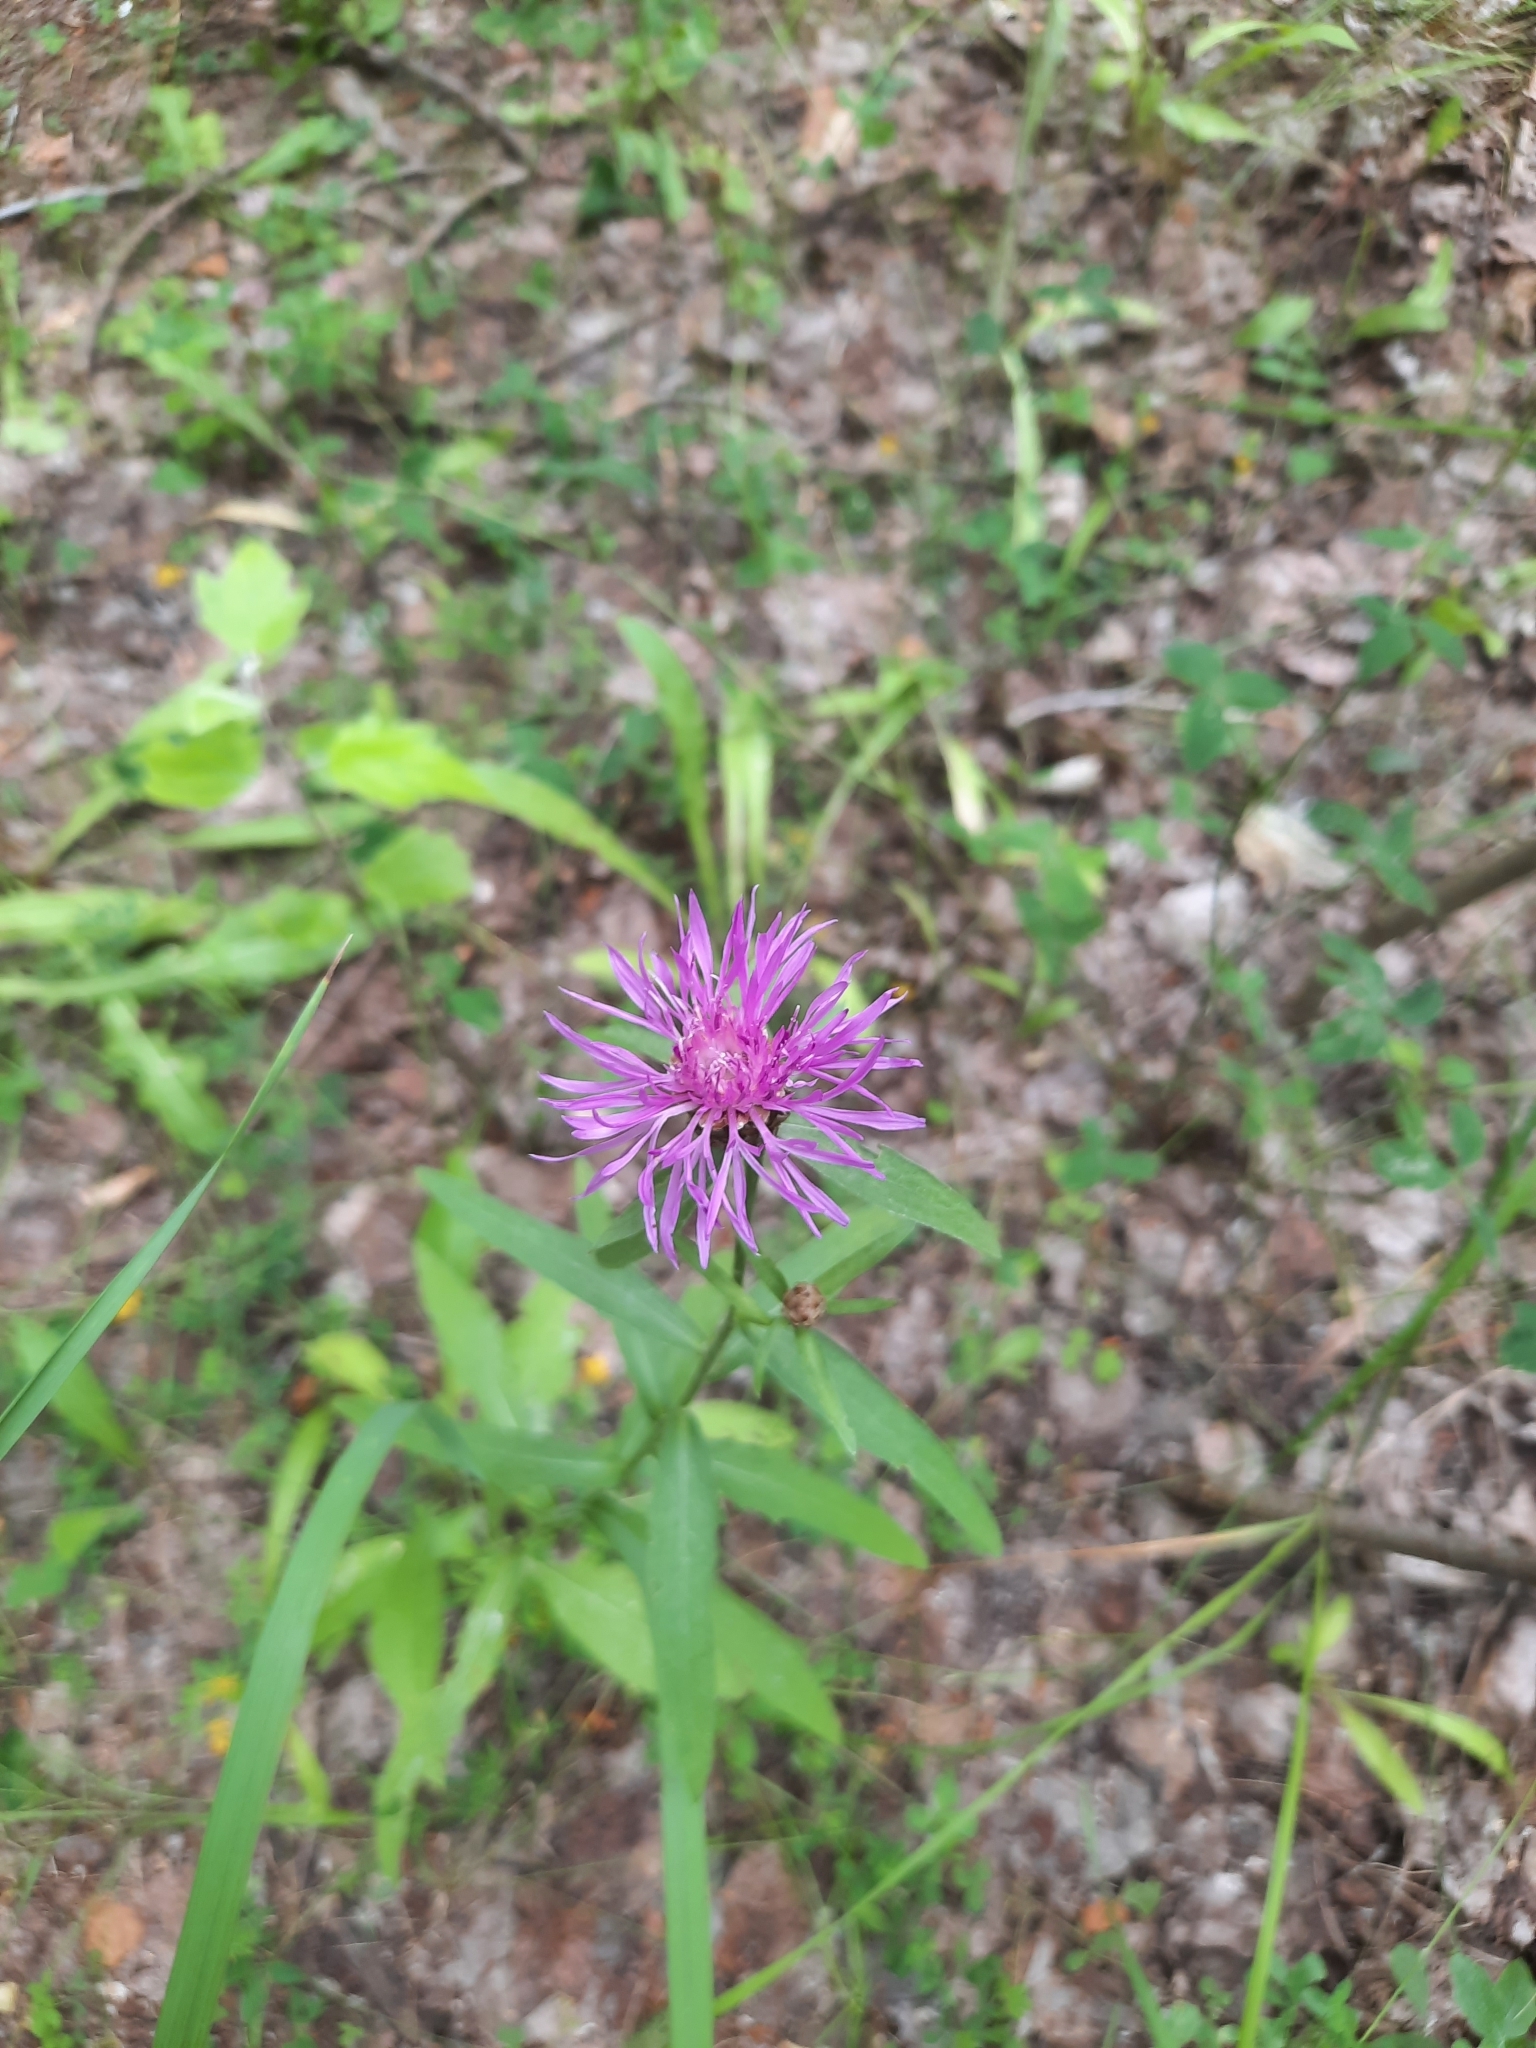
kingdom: Plantae
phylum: Tracheophyta
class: Magnoliopsida
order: Asterales
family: Asteraceae
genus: Centaurea
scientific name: Centaurea jacea
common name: Brown knapweed
